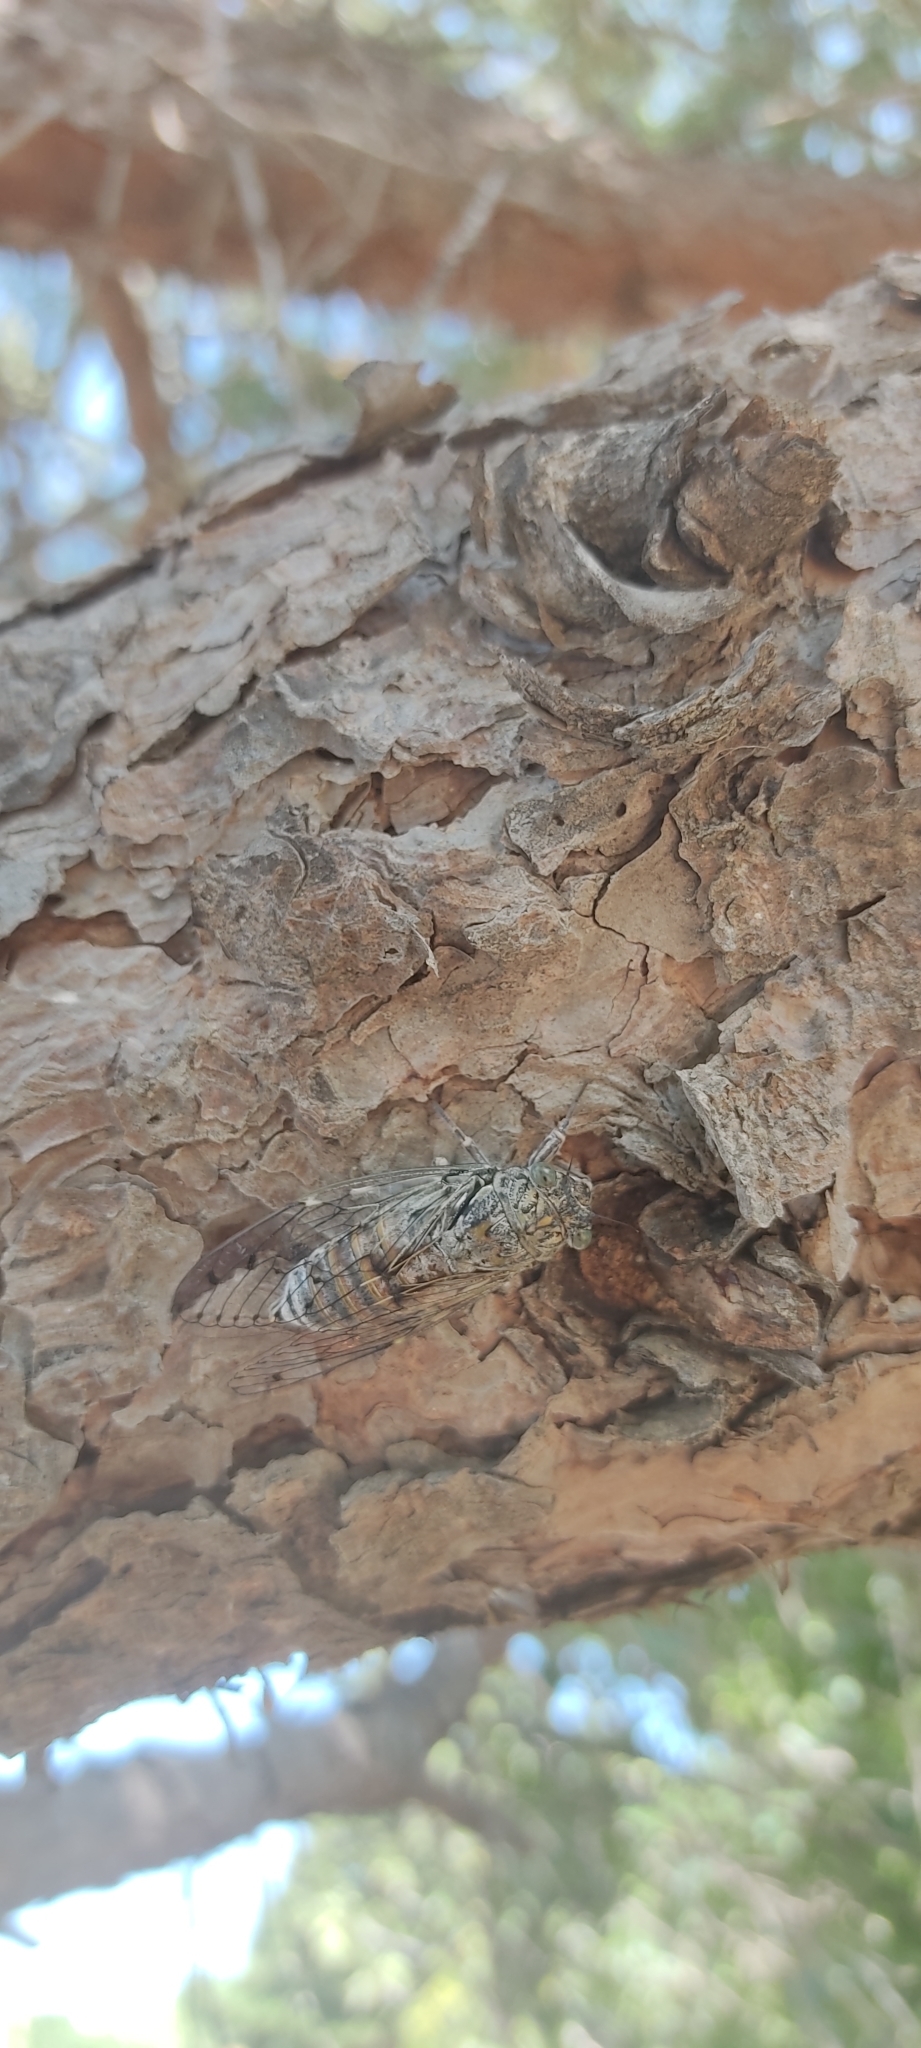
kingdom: Animalia
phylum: Arthropoda
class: Insecta
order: Hemiptera
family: Cicadidae
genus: Cicada
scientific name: Cicada orni
